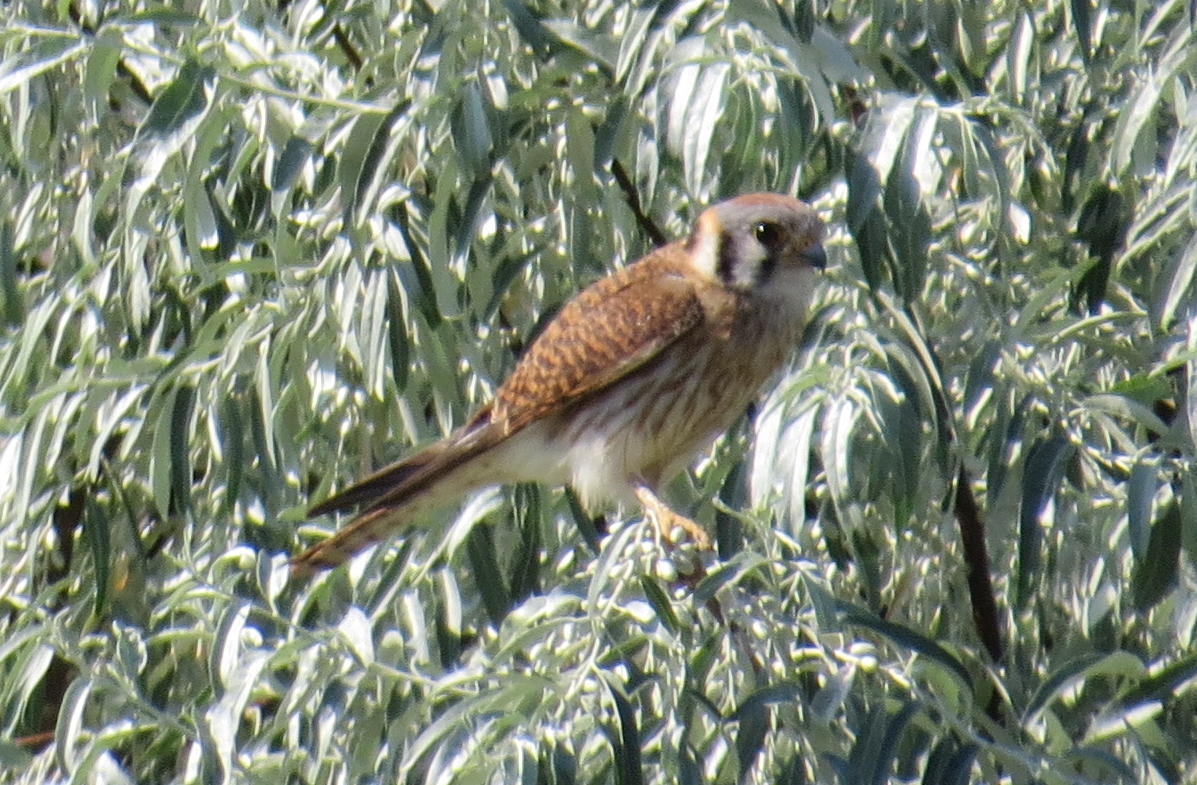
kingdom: Animalia
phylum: Chordata
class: Aves
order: Falconiformes
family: Falconidae
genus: Falco
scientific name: Falco sparverius
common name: American kestrel
